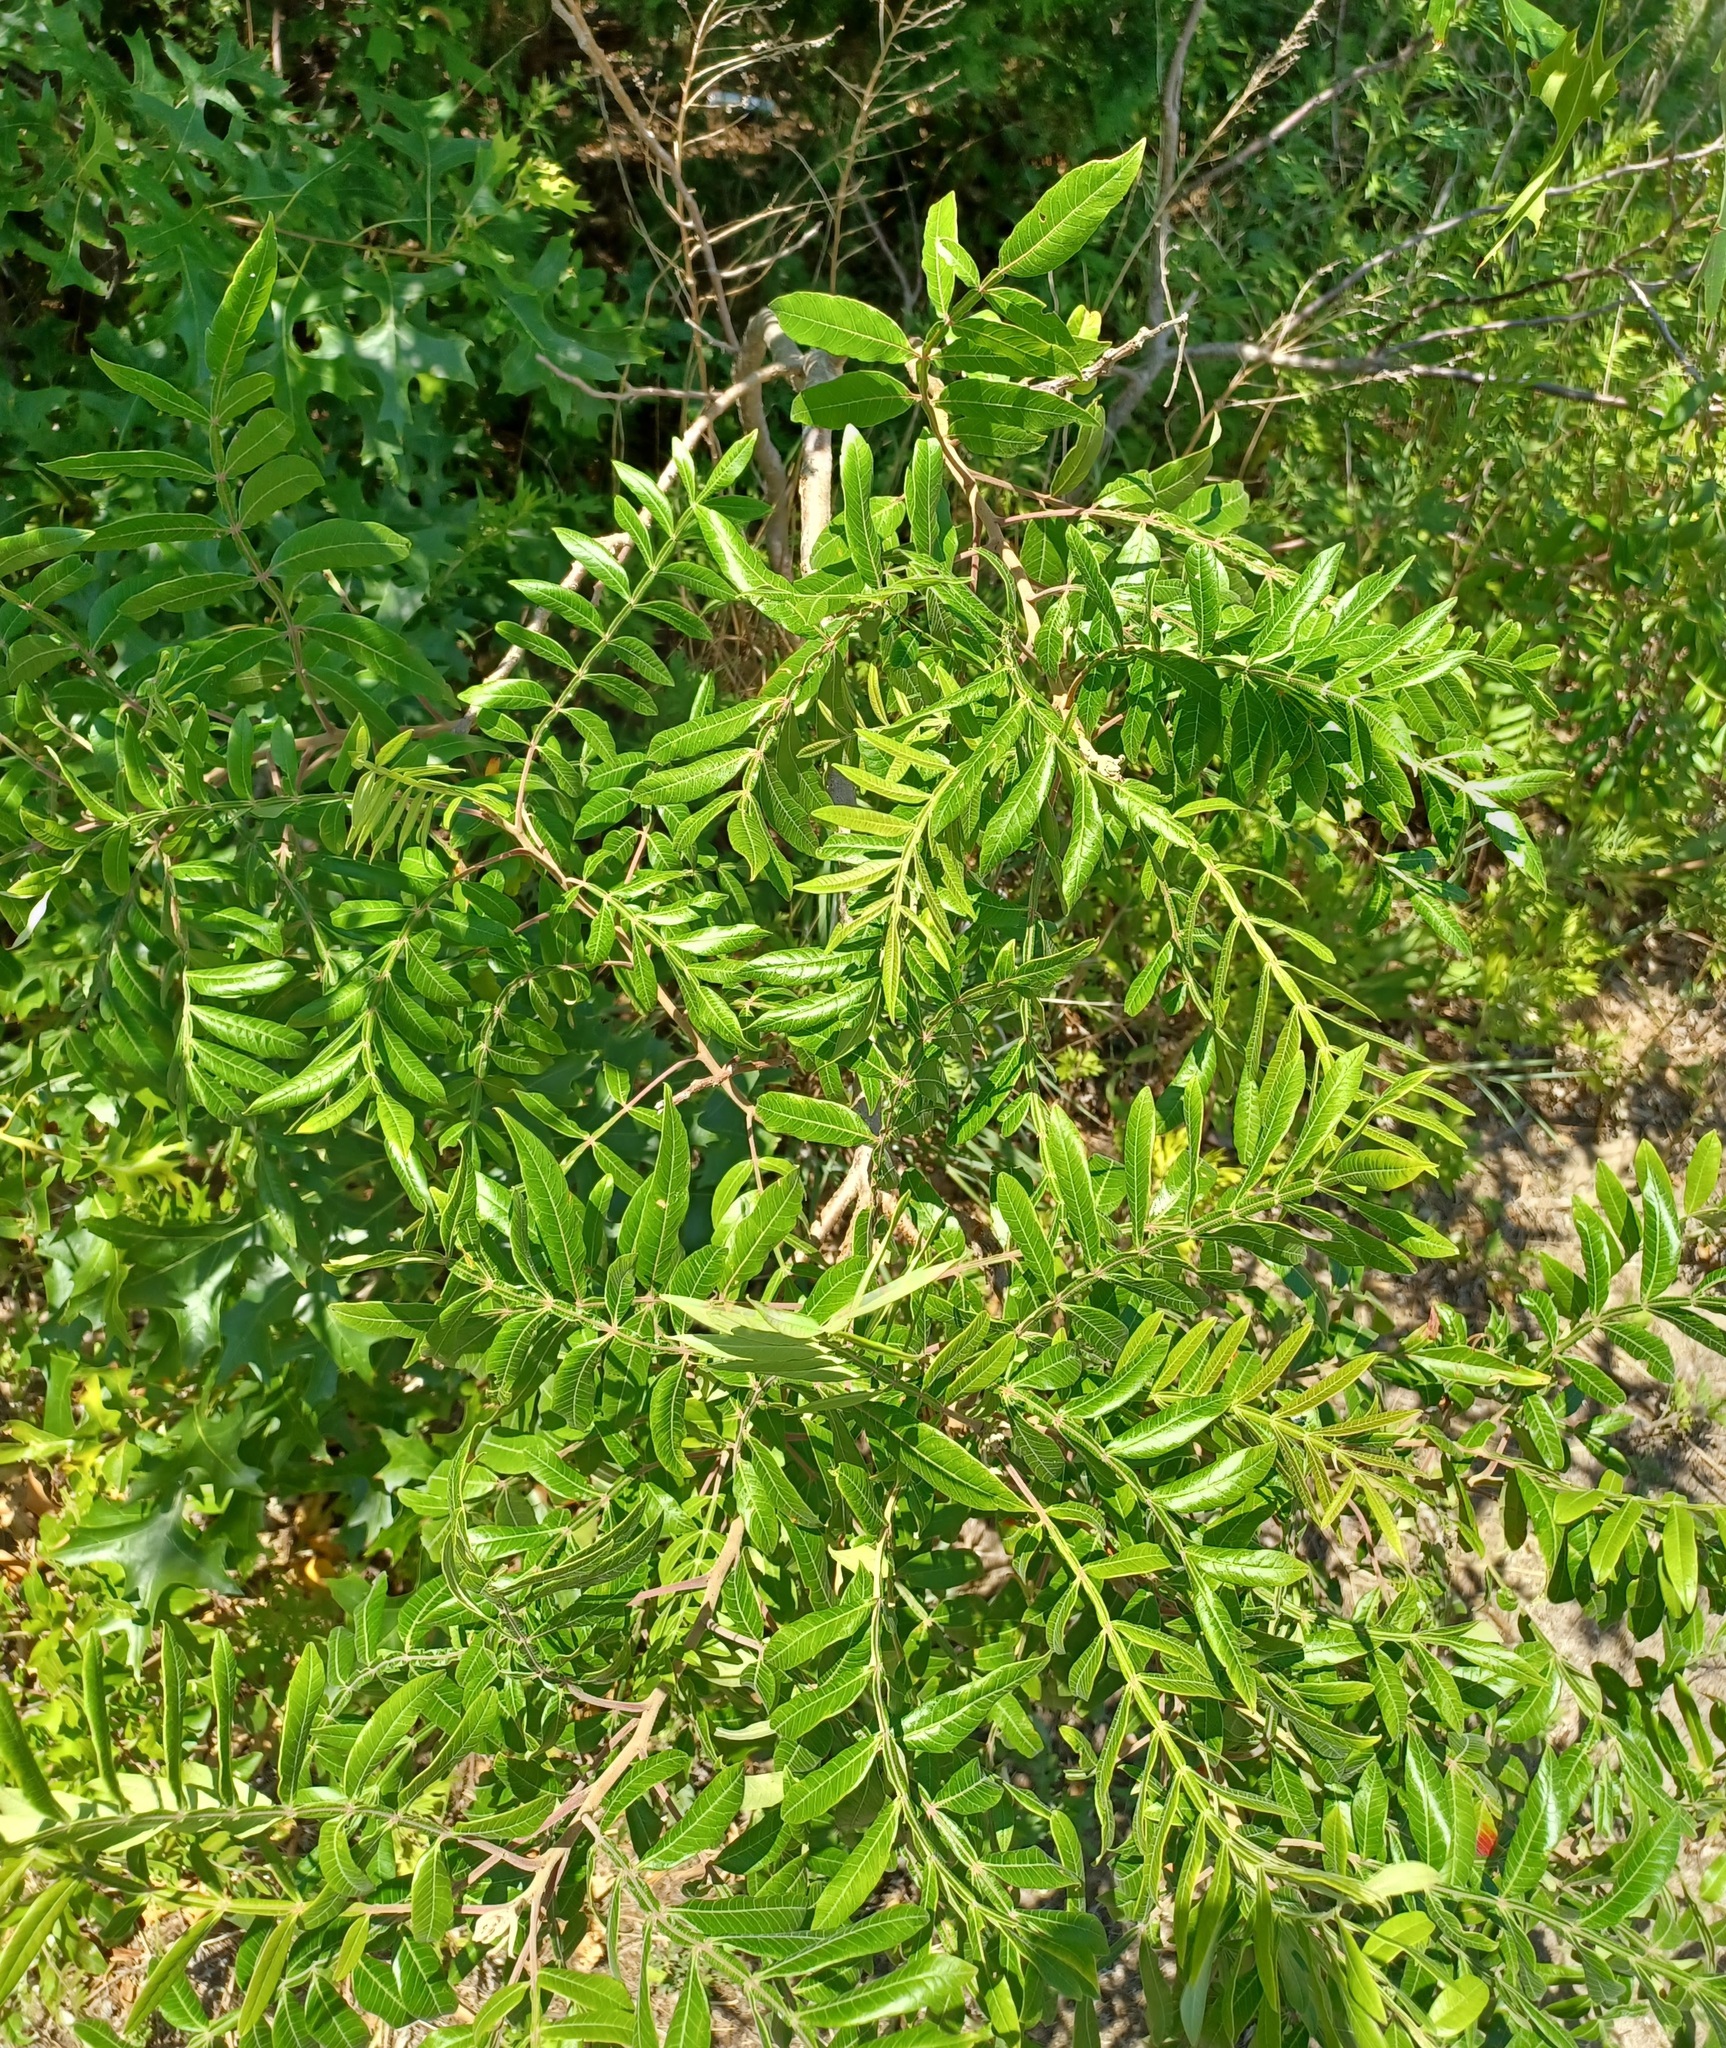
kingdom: Plantae
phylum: Tracheophyta
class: Magnoliopsida
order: Sapindales
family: Anacardiaceae
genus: Rhus
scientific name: Rhus copallina
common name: Shining sumac
